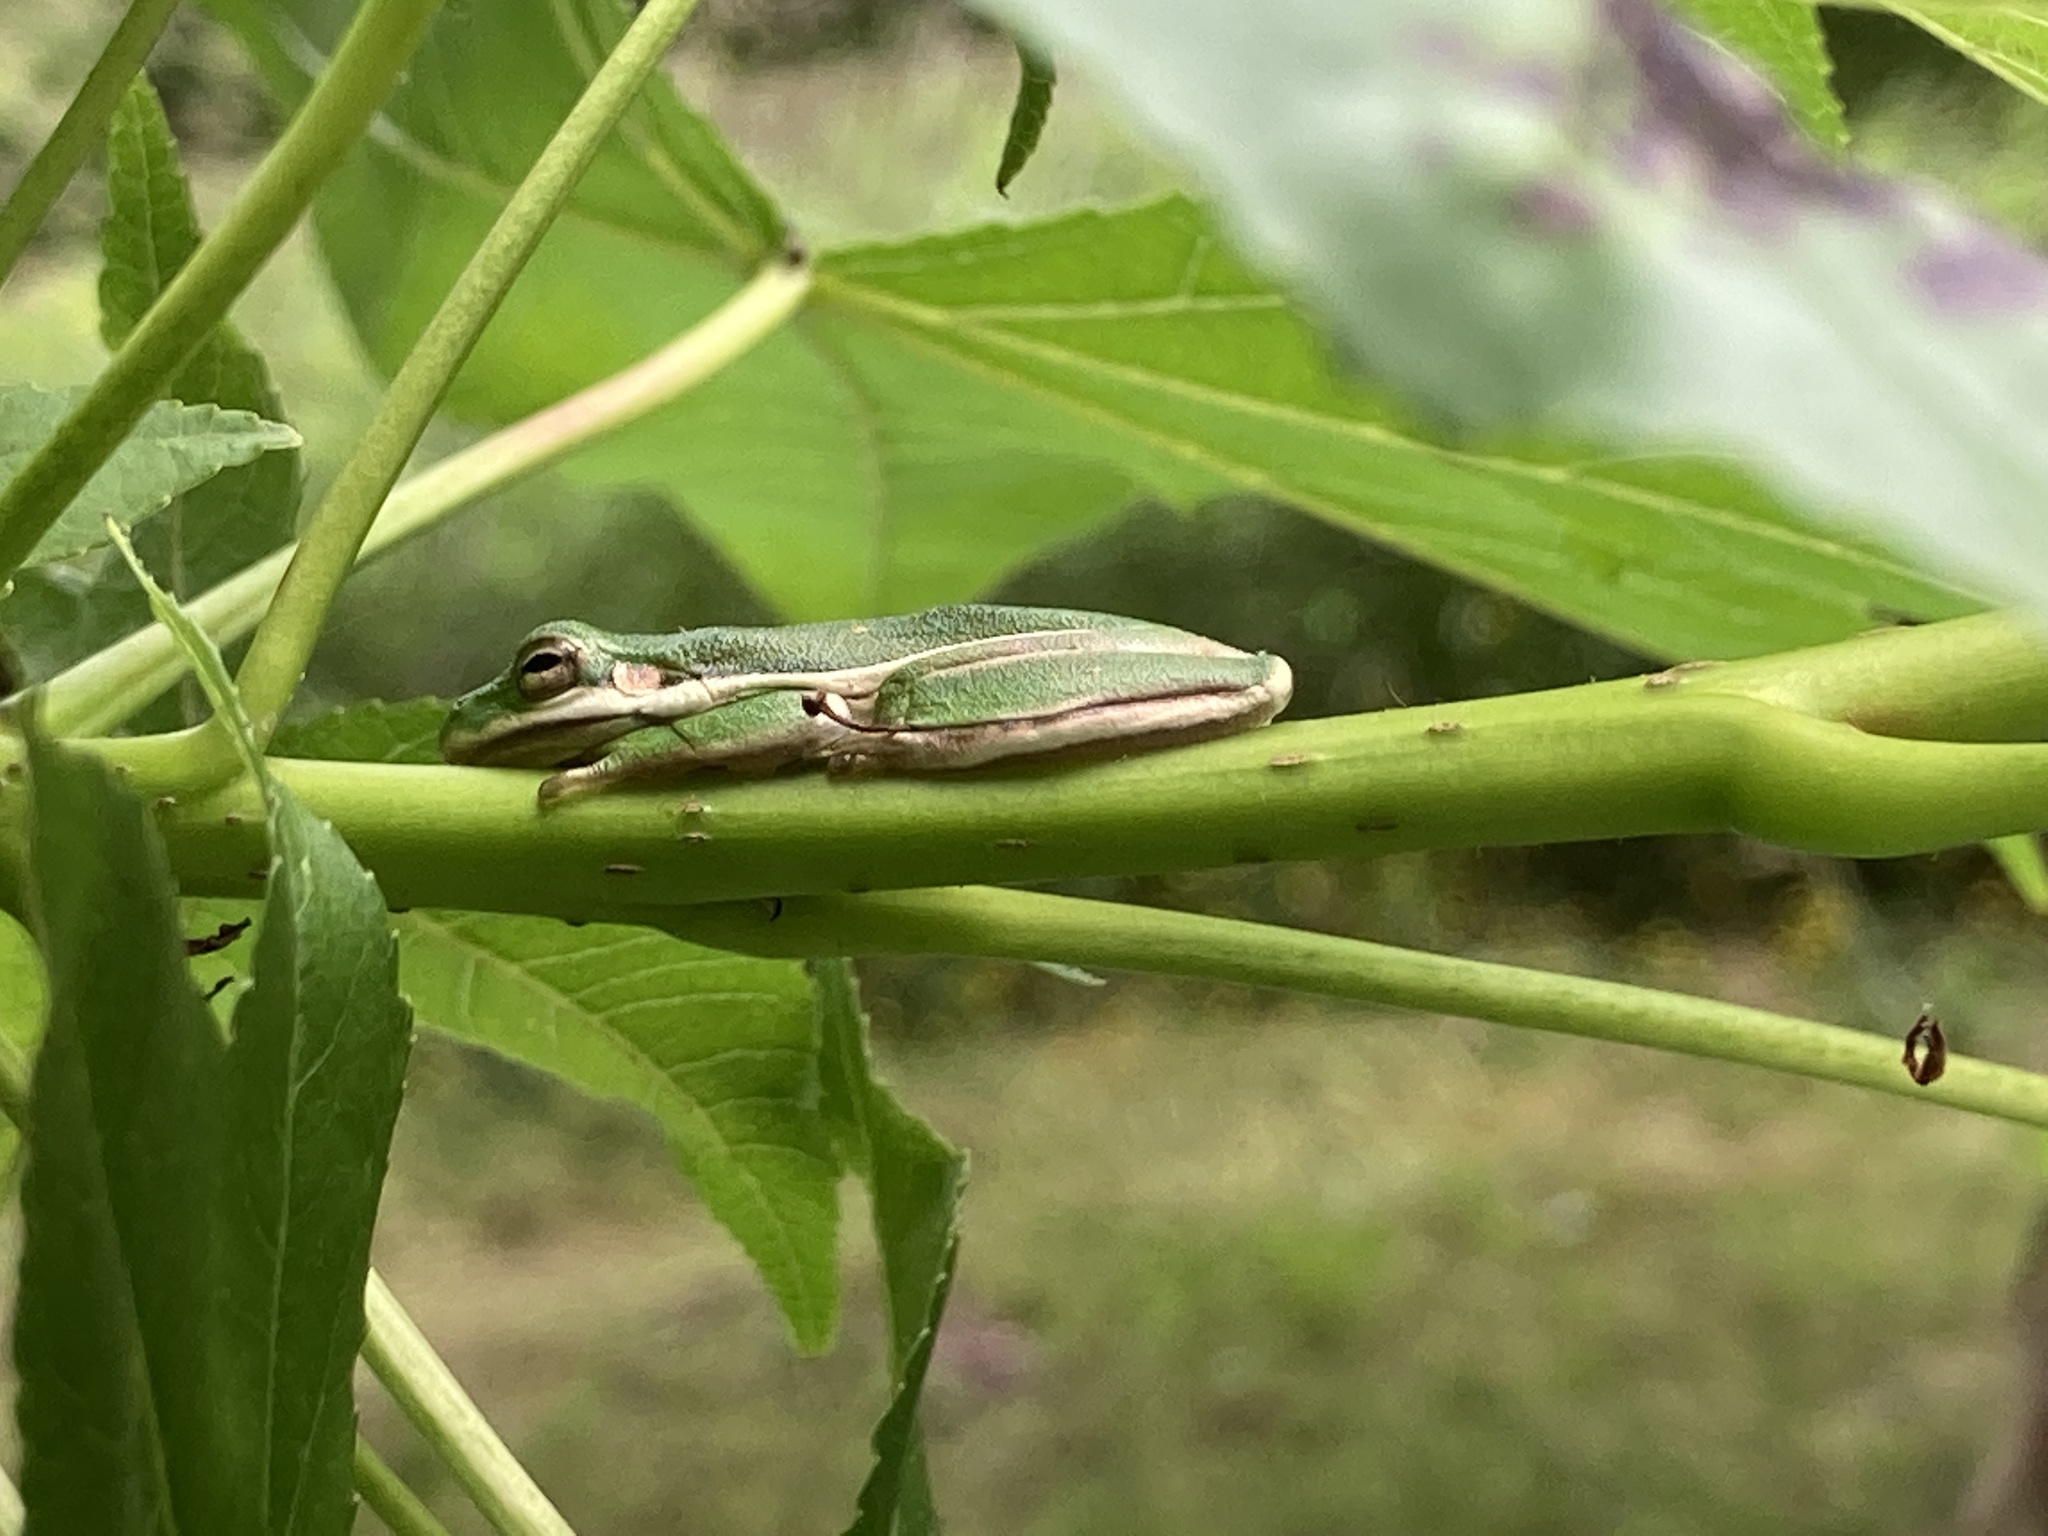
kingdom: Animalia
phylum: Chordata
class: Amphibia
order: Anura
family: Hylidae
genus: Dryophytes
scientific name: Dryophytes cinereus
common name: Green treefrog
